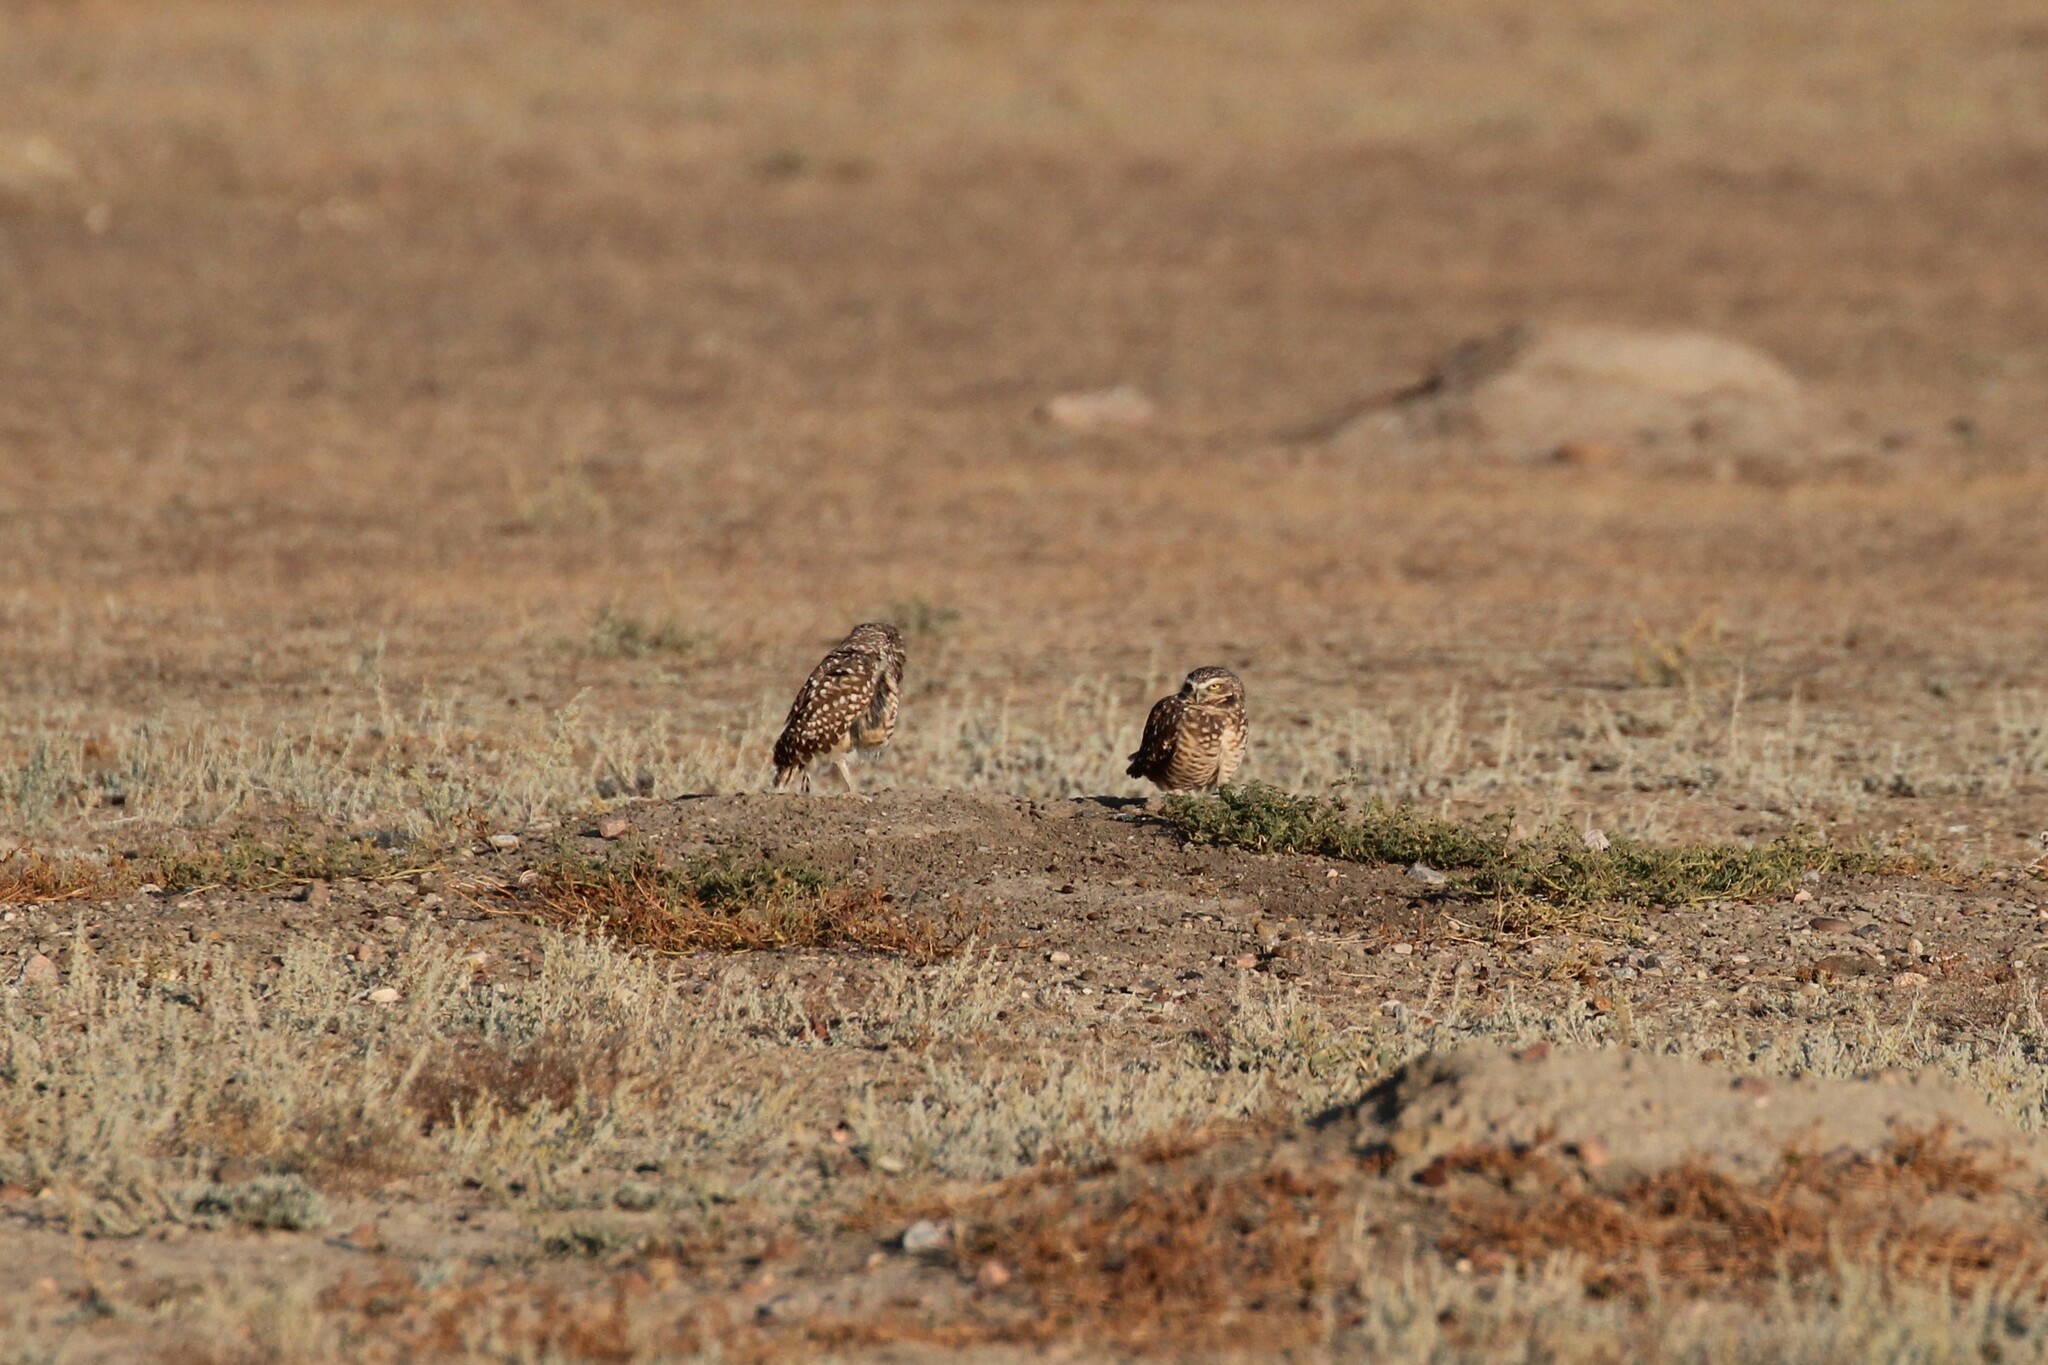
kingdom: Animalia
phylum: Chordata
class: Aves
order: Strigiformes
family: Strigidae
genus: Athene
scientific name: Athene cunicularia
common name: Burrowing owl
